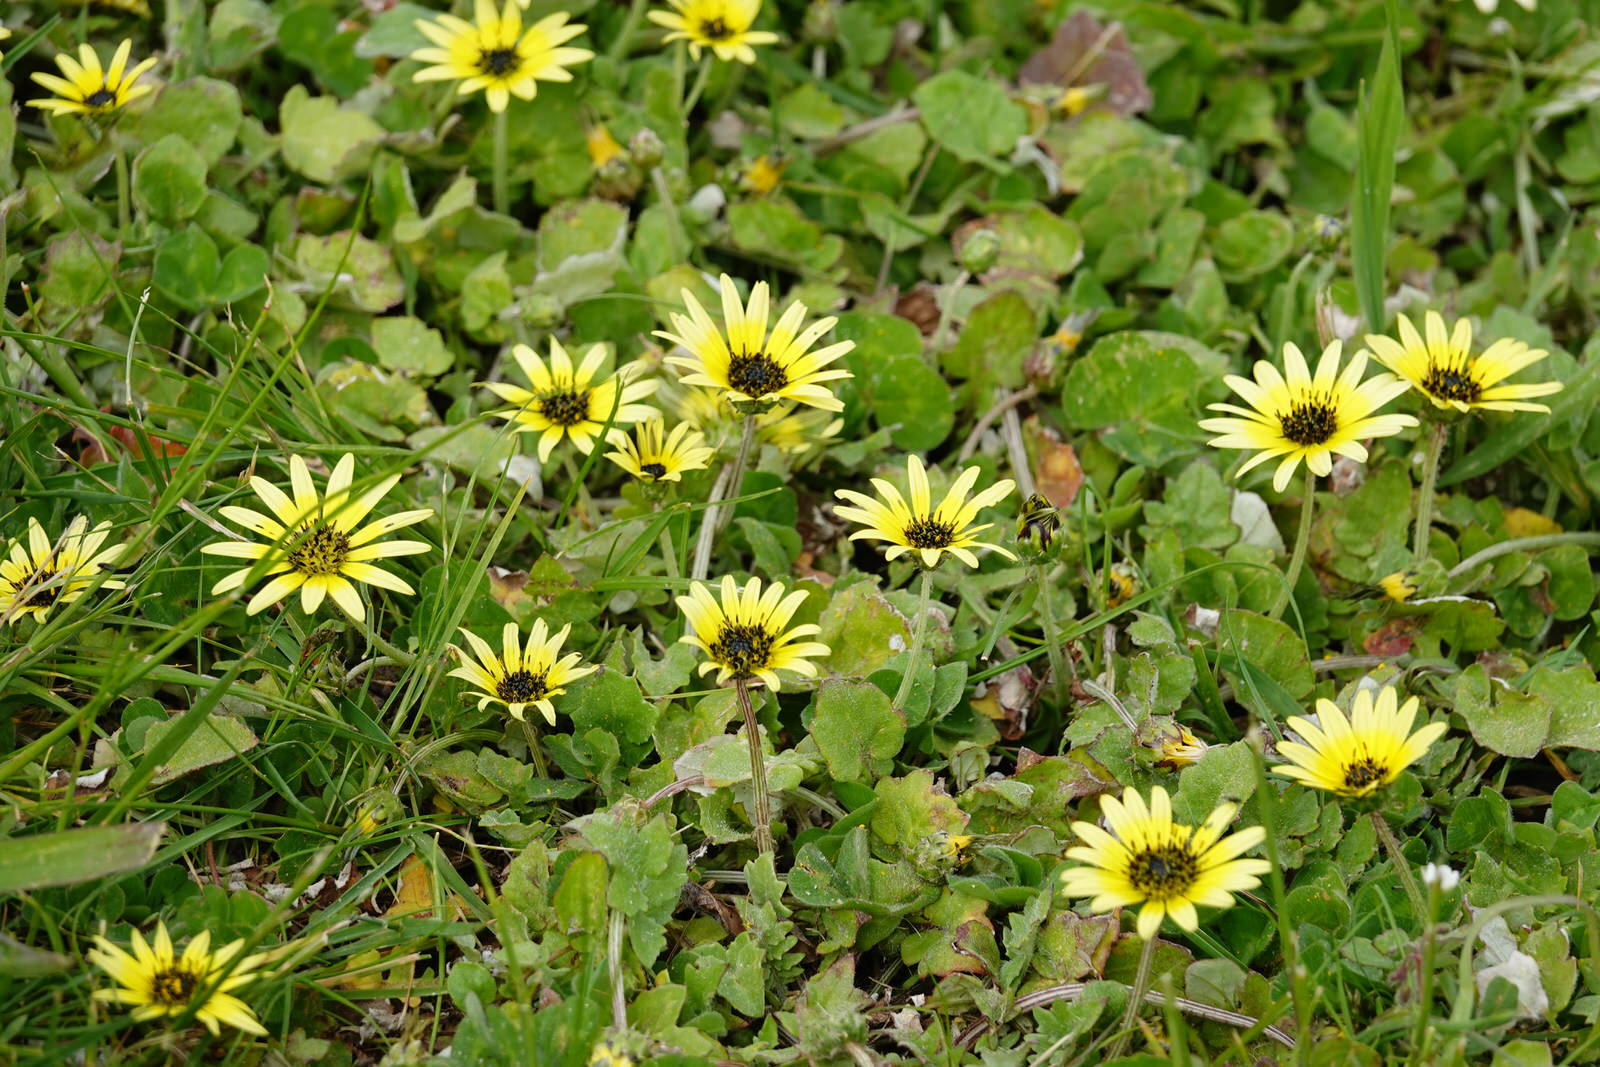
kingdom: Plantae
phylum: Tracheophyta
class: Magnoliopsida
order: Asterales
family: Asteraceae
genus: Arctotheca
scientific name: Arctotheca calendula
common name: Capeweed
